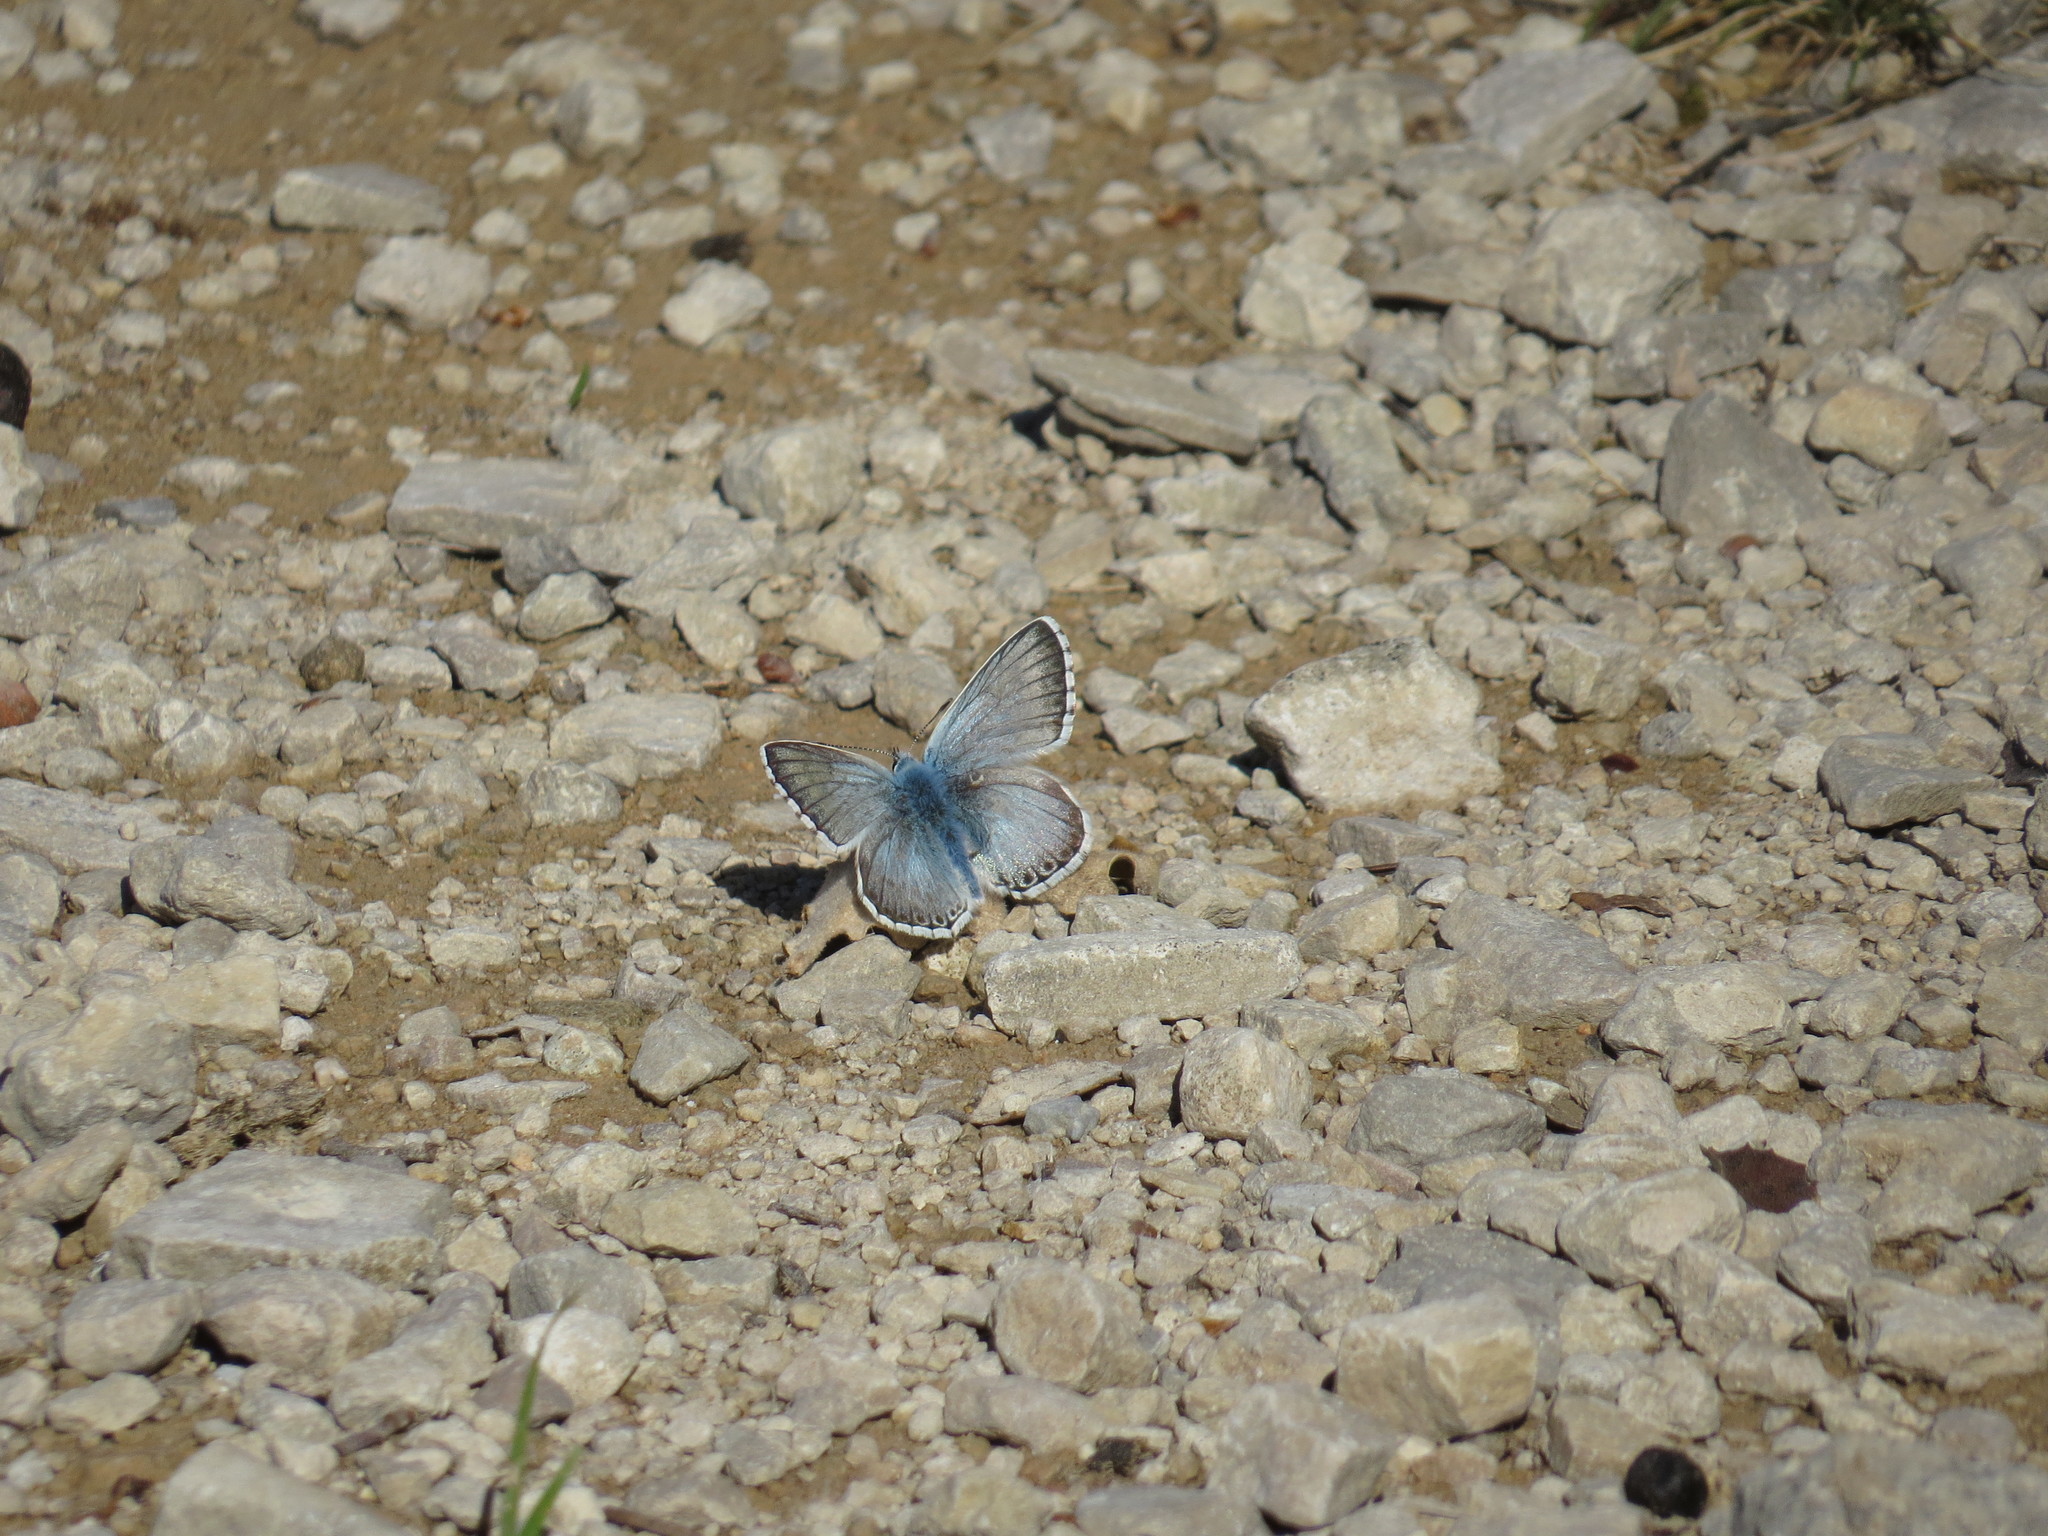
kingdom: Animalia
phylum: Arthropoda
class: Insecta
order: Lepidoptera
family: Lycaenidae
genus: Lysandra
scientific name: Lysandra hispana
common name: Provence chalkhill blue
